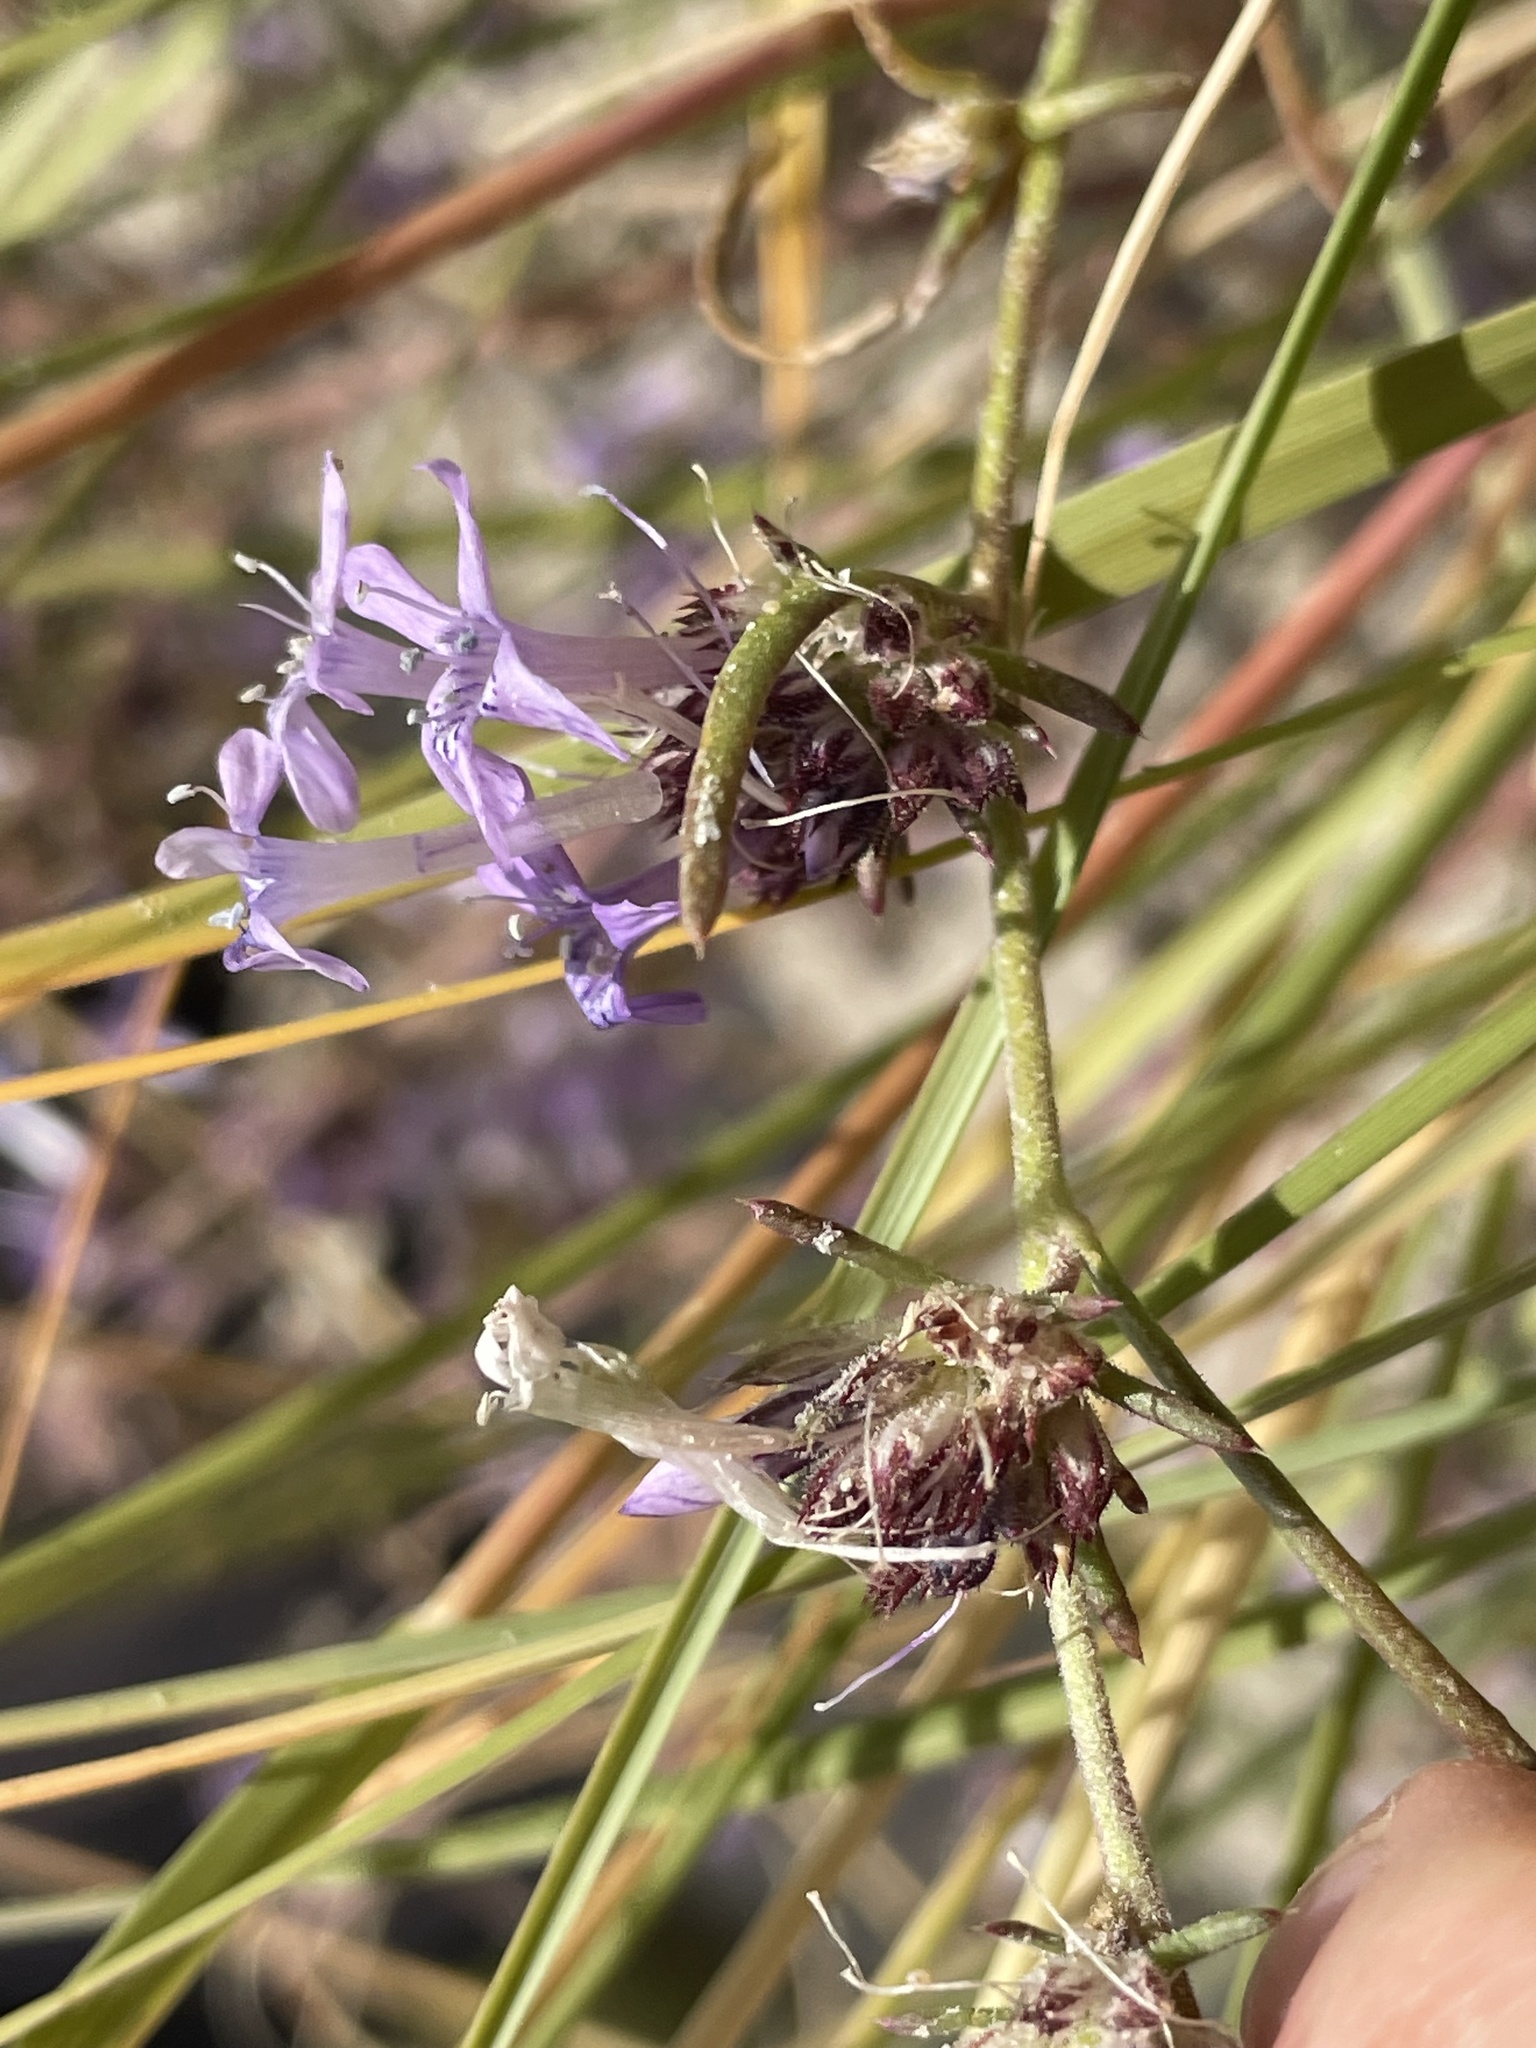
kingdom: Plantae
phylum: Tracheophyta
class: Magnoliopsida
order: Ericales
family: Polemoniaceae
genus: Ipomopsis
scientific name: Ipomopsis multiflora
